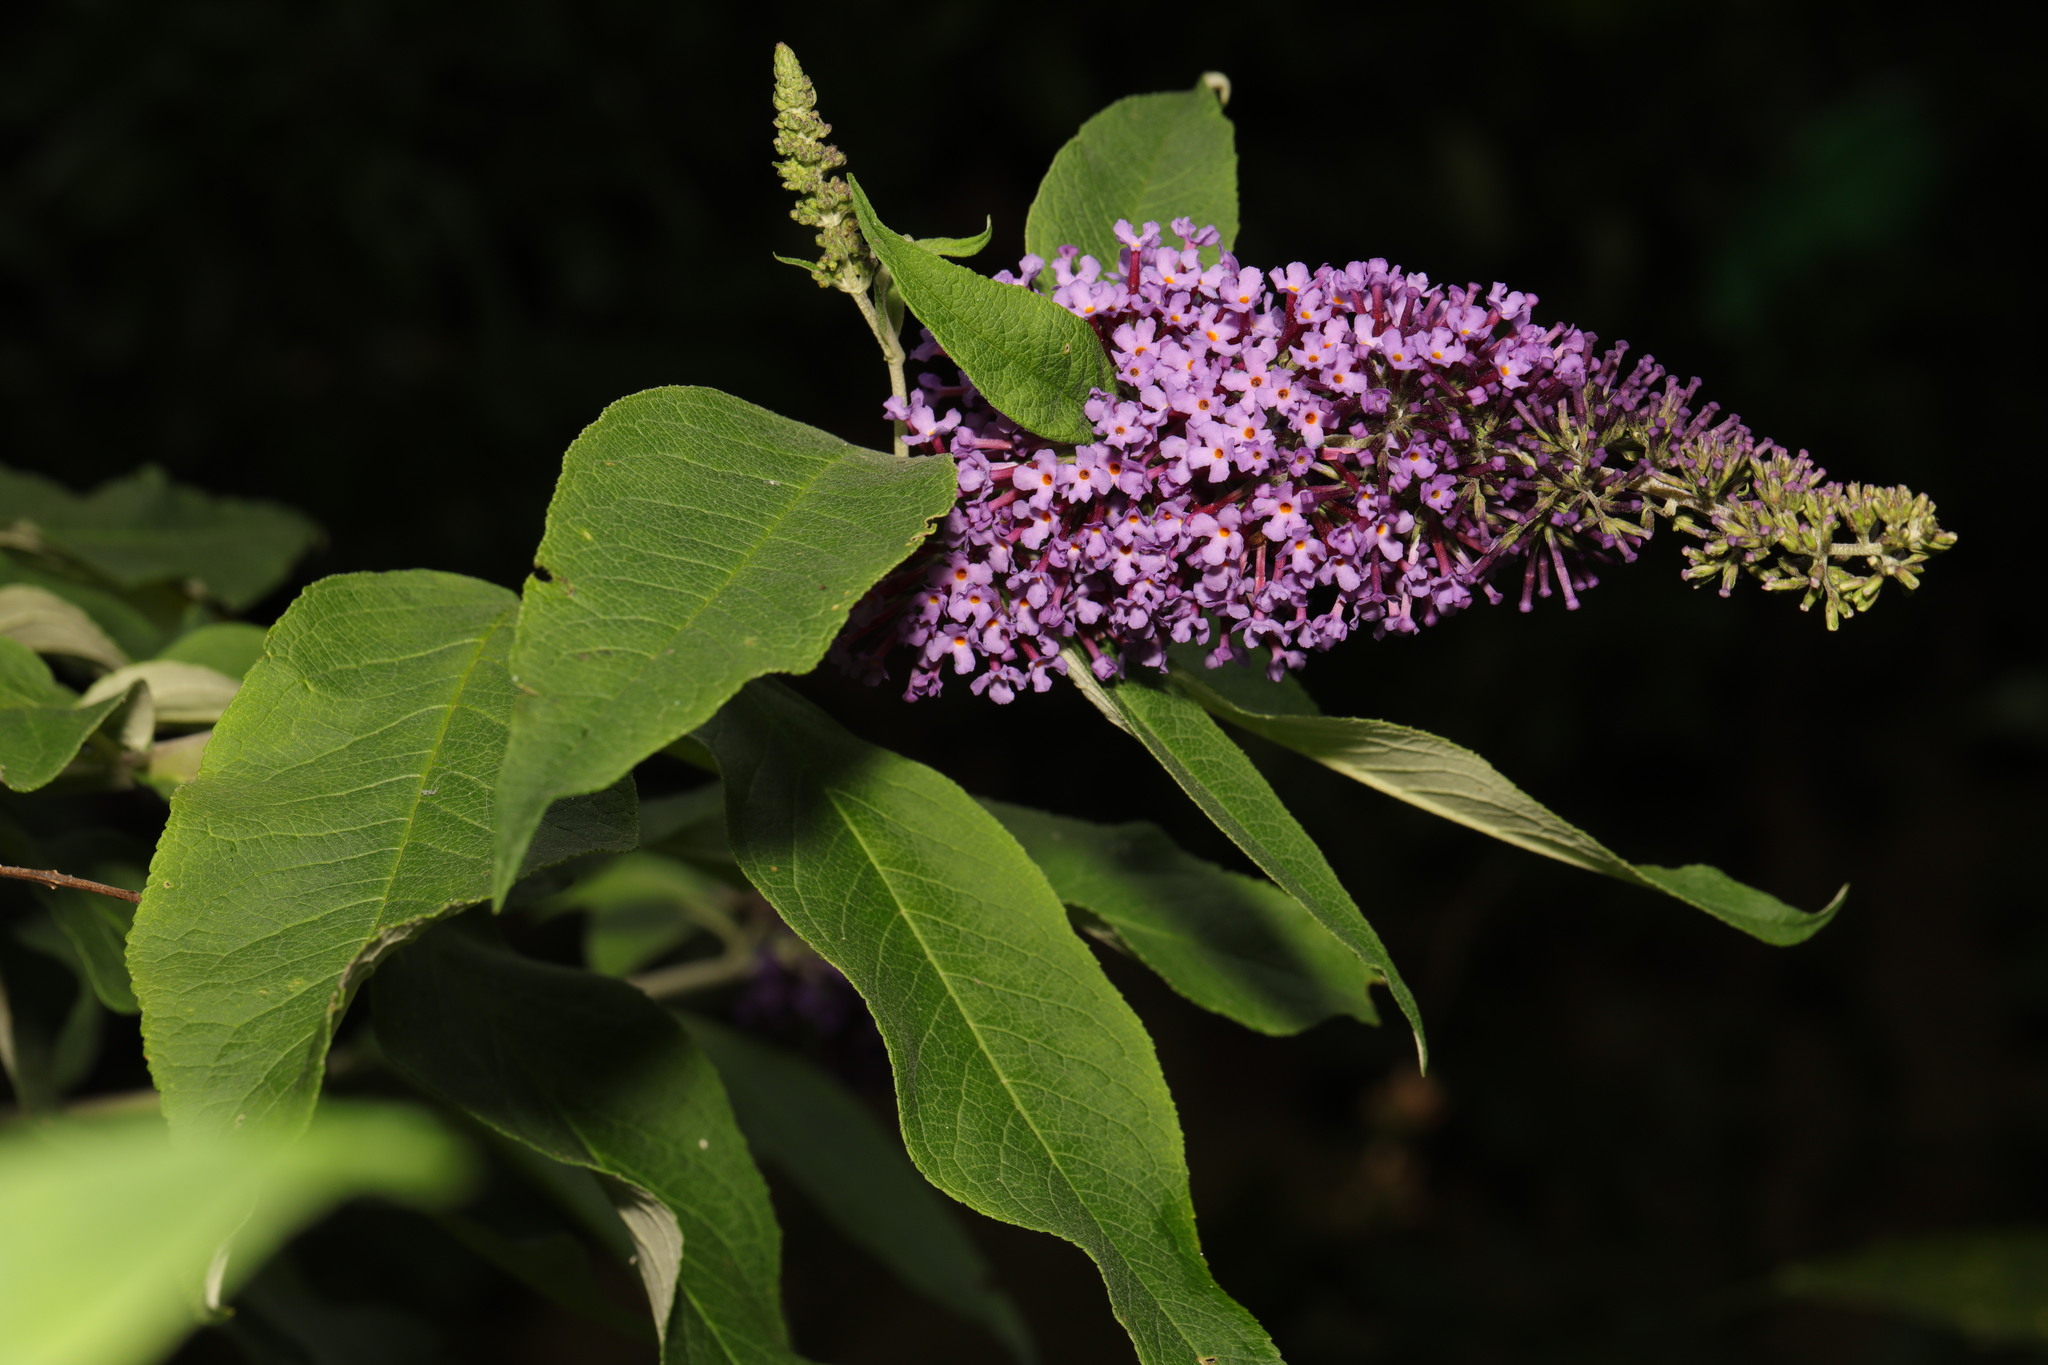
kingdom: Plantae
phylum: Tracheophyta
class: Magnoliopsida
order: Lamiales
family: Scrophulariaceae
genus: Buddleja
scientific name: Buddleja davidii
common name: Butterfly-bush
